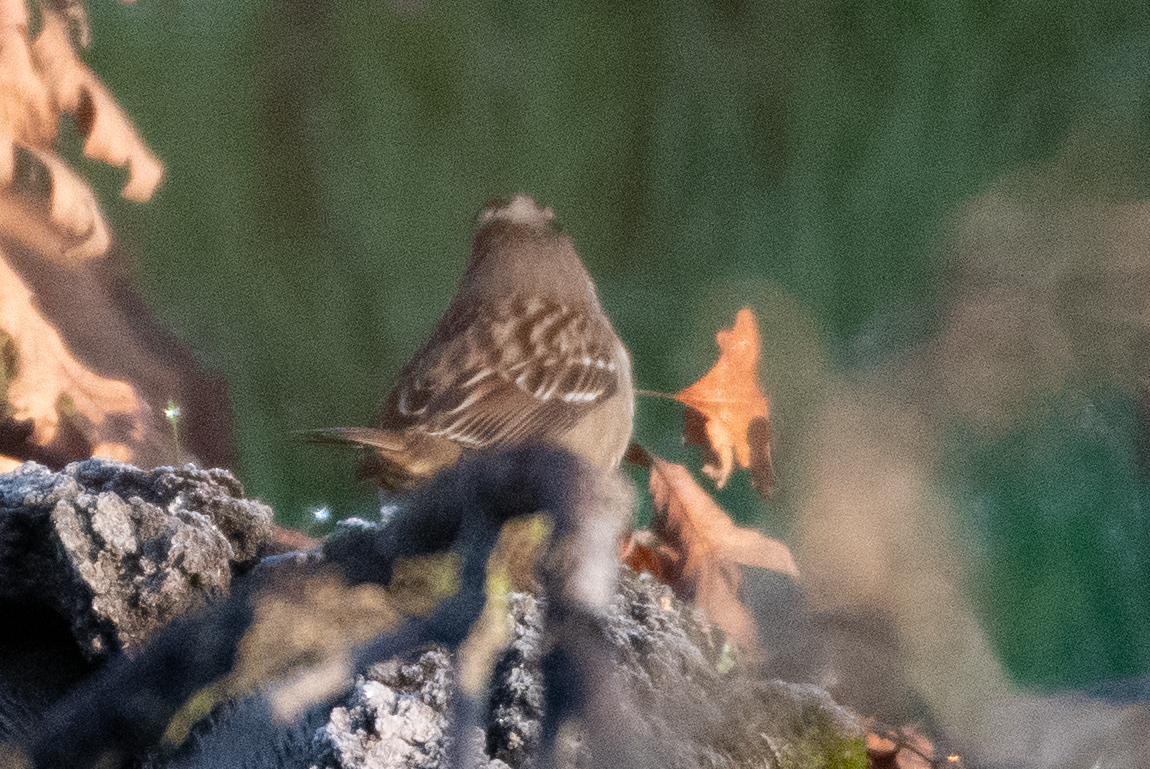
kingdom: Animalia
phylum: Chordata
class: Aves
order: Passeriformes
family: Passerellidae
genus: Zonotrichia
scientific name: Zonotrichia leucophrys
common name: White-crowned sparrow
